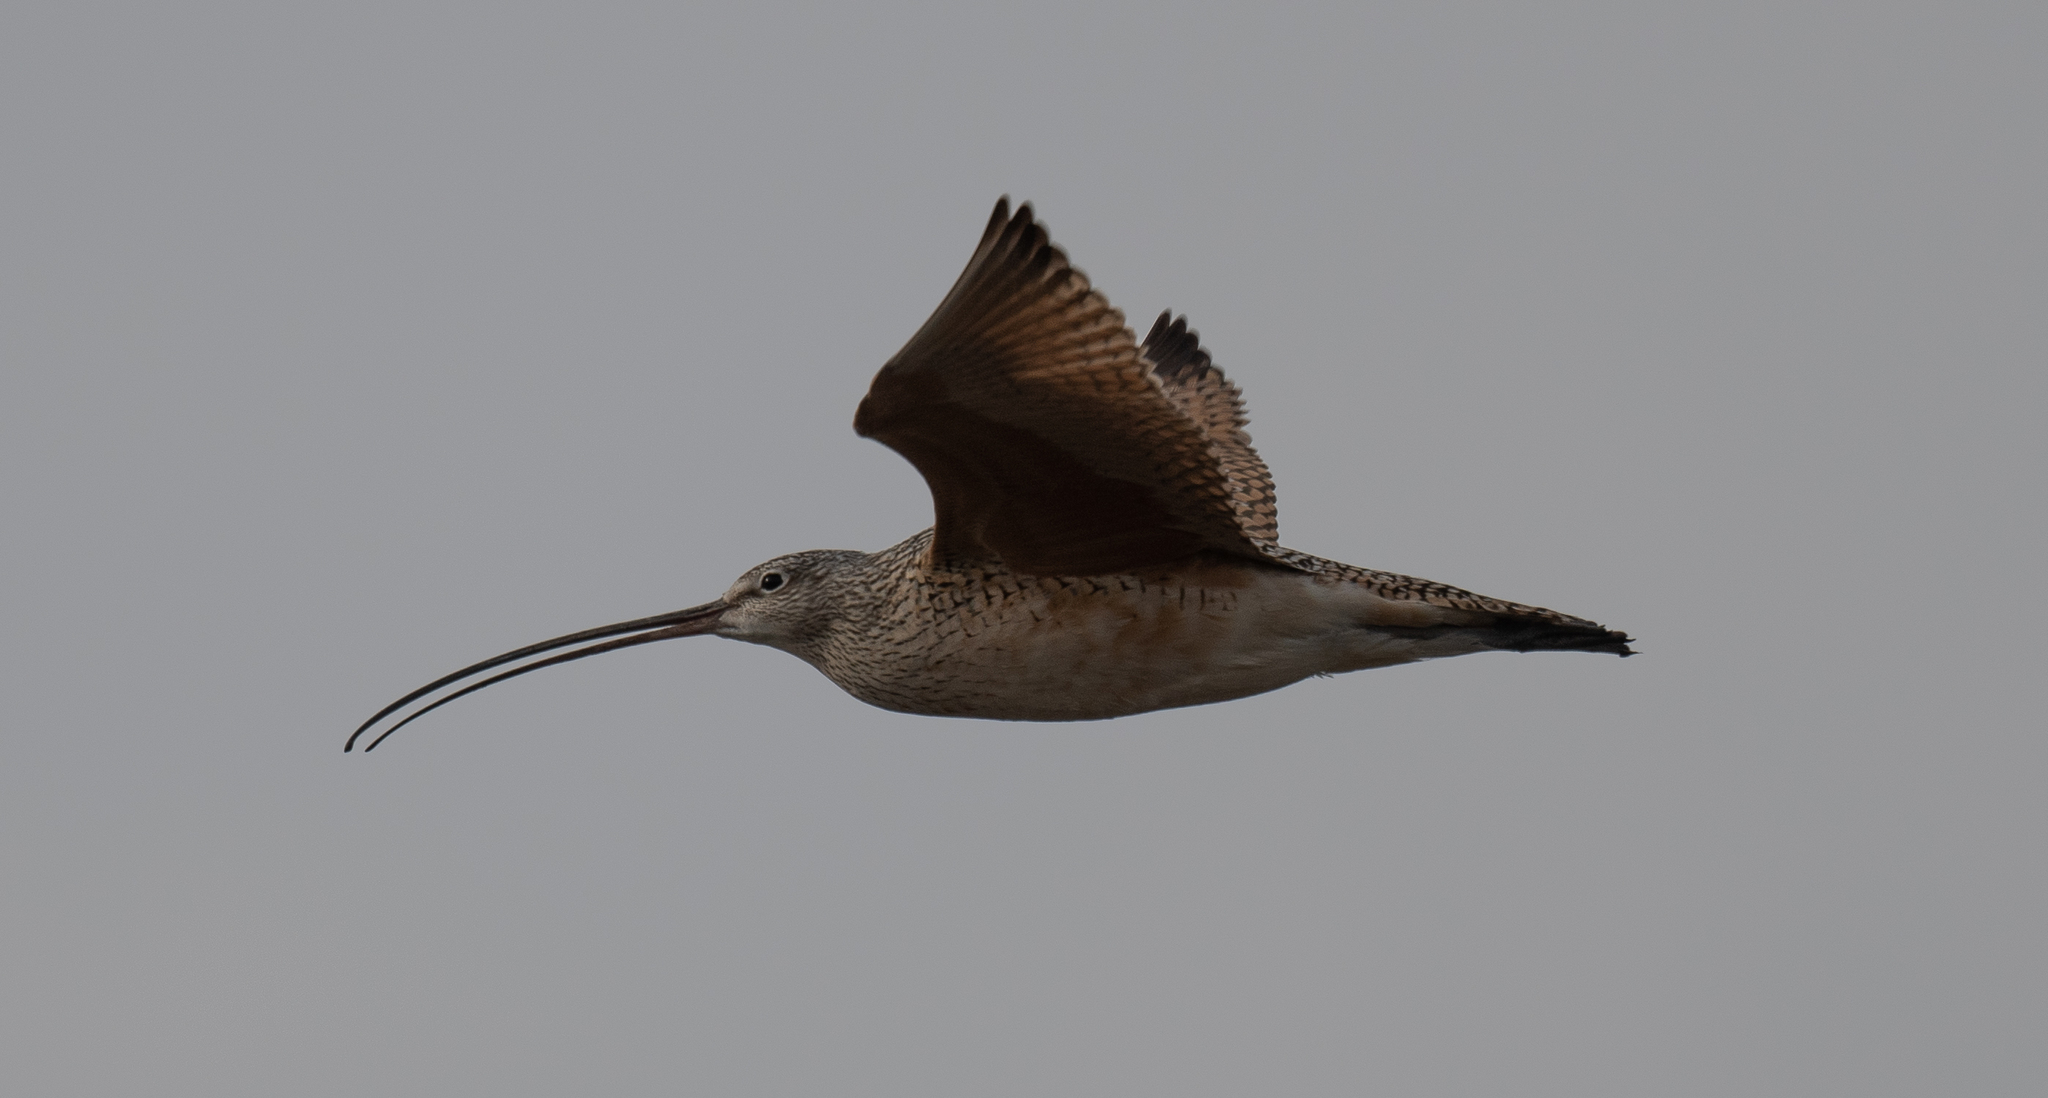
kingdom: Animalia
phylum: Chordata
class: Aves
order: Charadriiformes
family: Scolopacidae
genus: Numenius
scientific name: Numenius americanus
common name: Long-billed curlew
